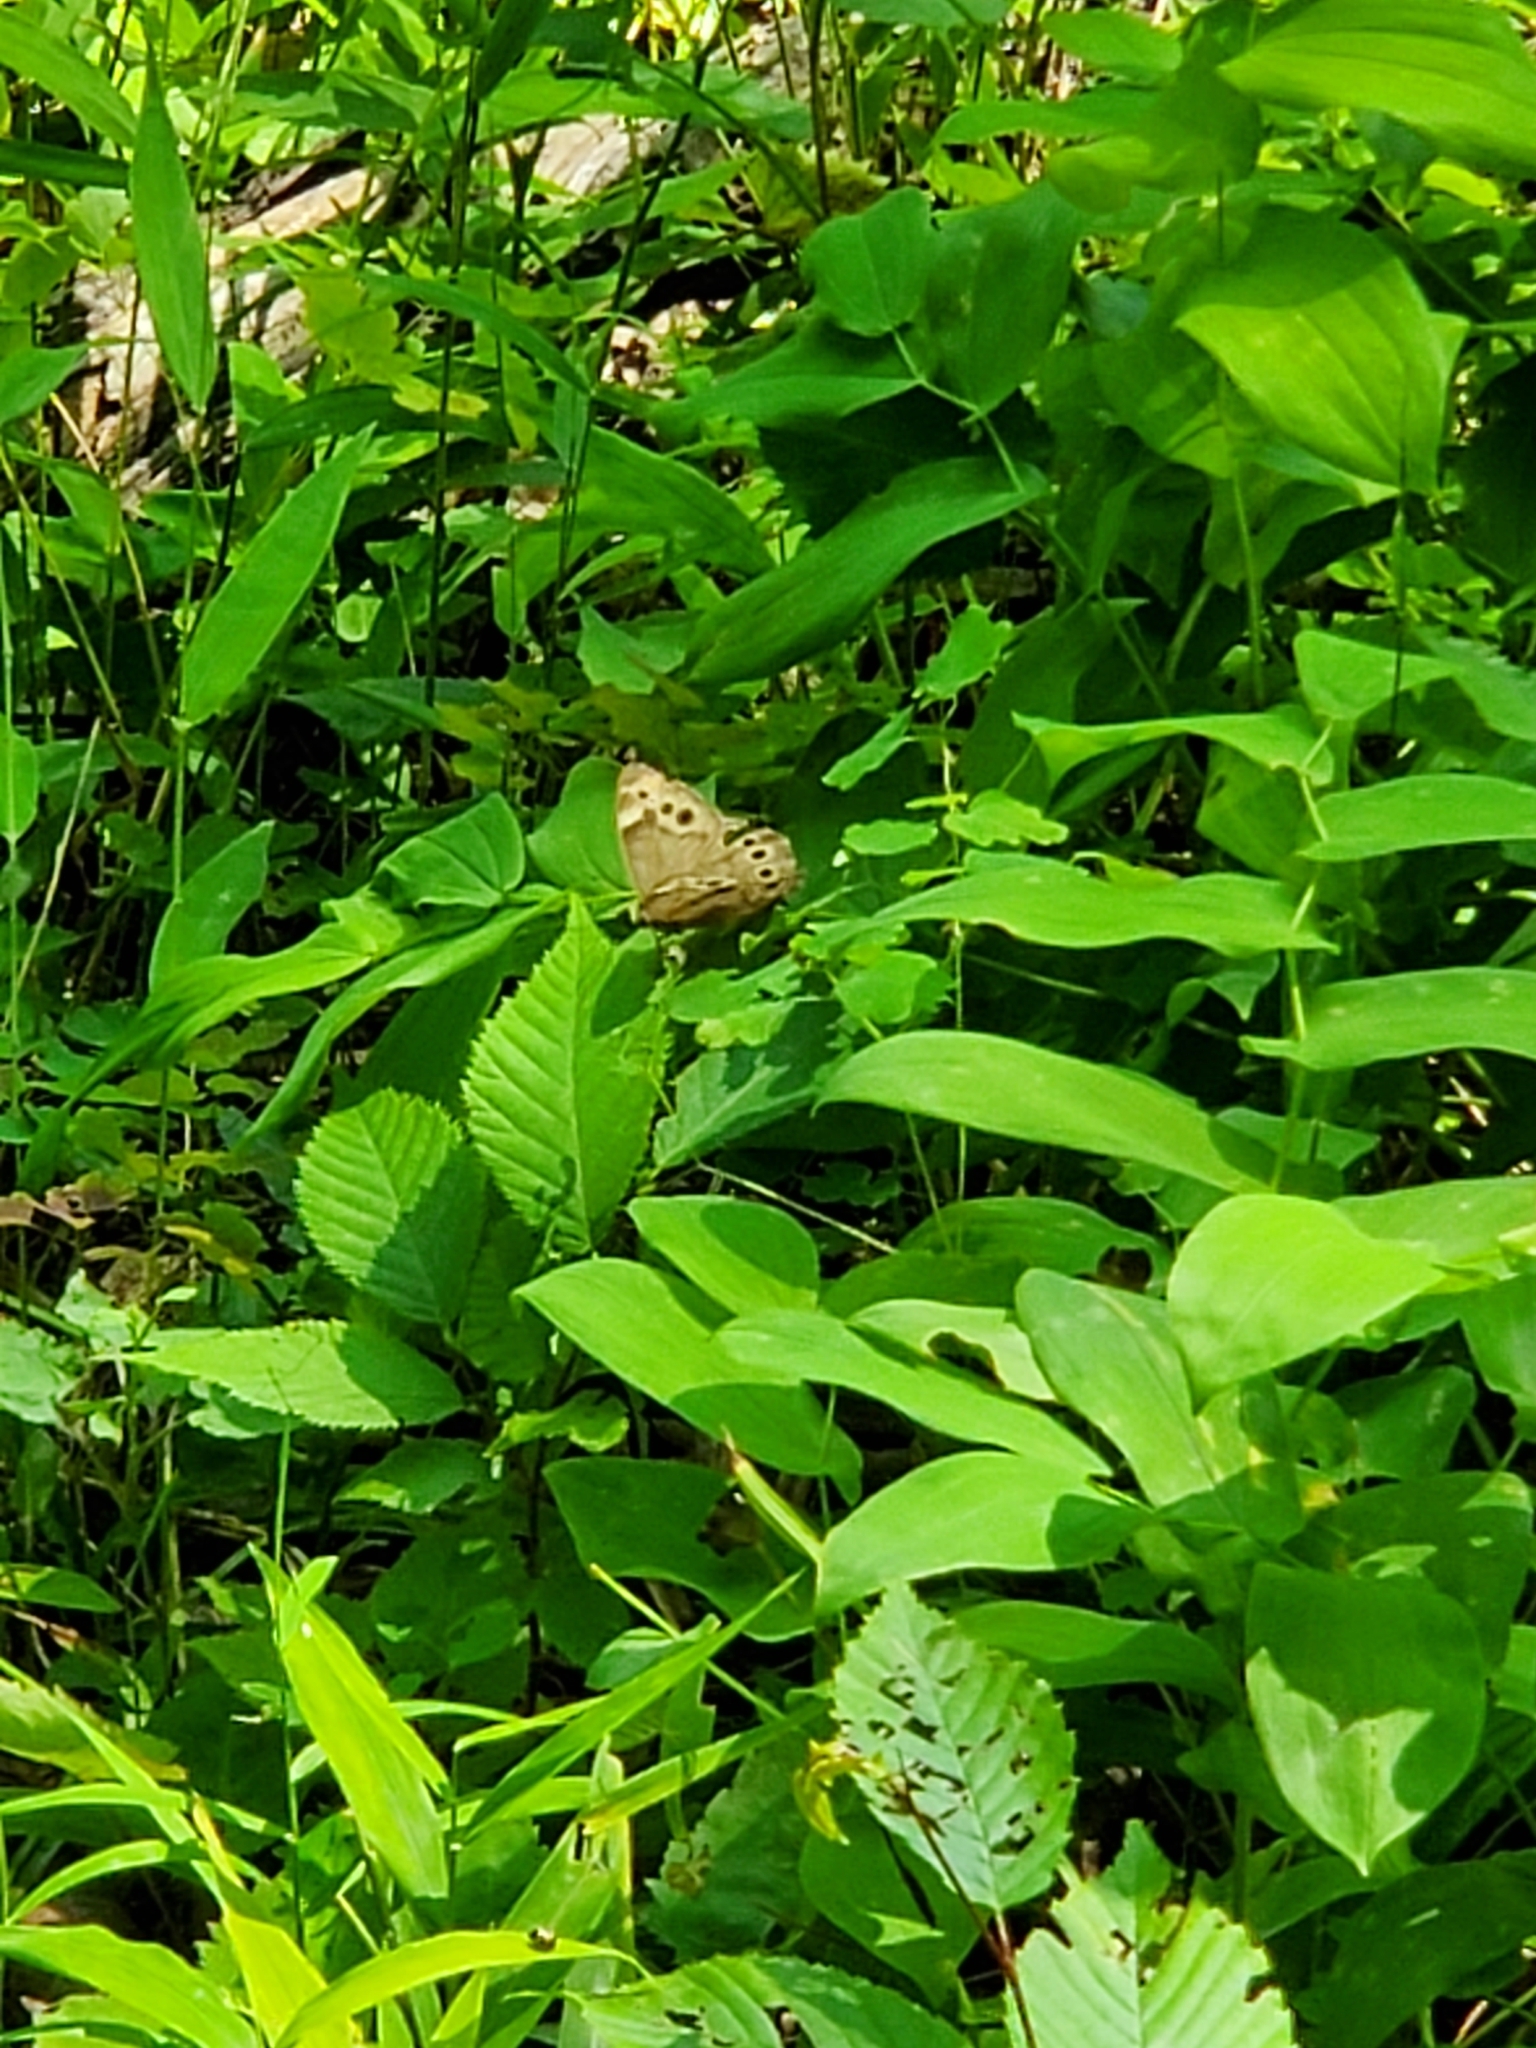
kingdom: Animalia
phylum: Arthropoda
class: Insecta
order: Lepidoptera
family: Nymphalidae
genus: Lethe
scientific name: Lethe anthedon
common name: Northern pearly-eye
